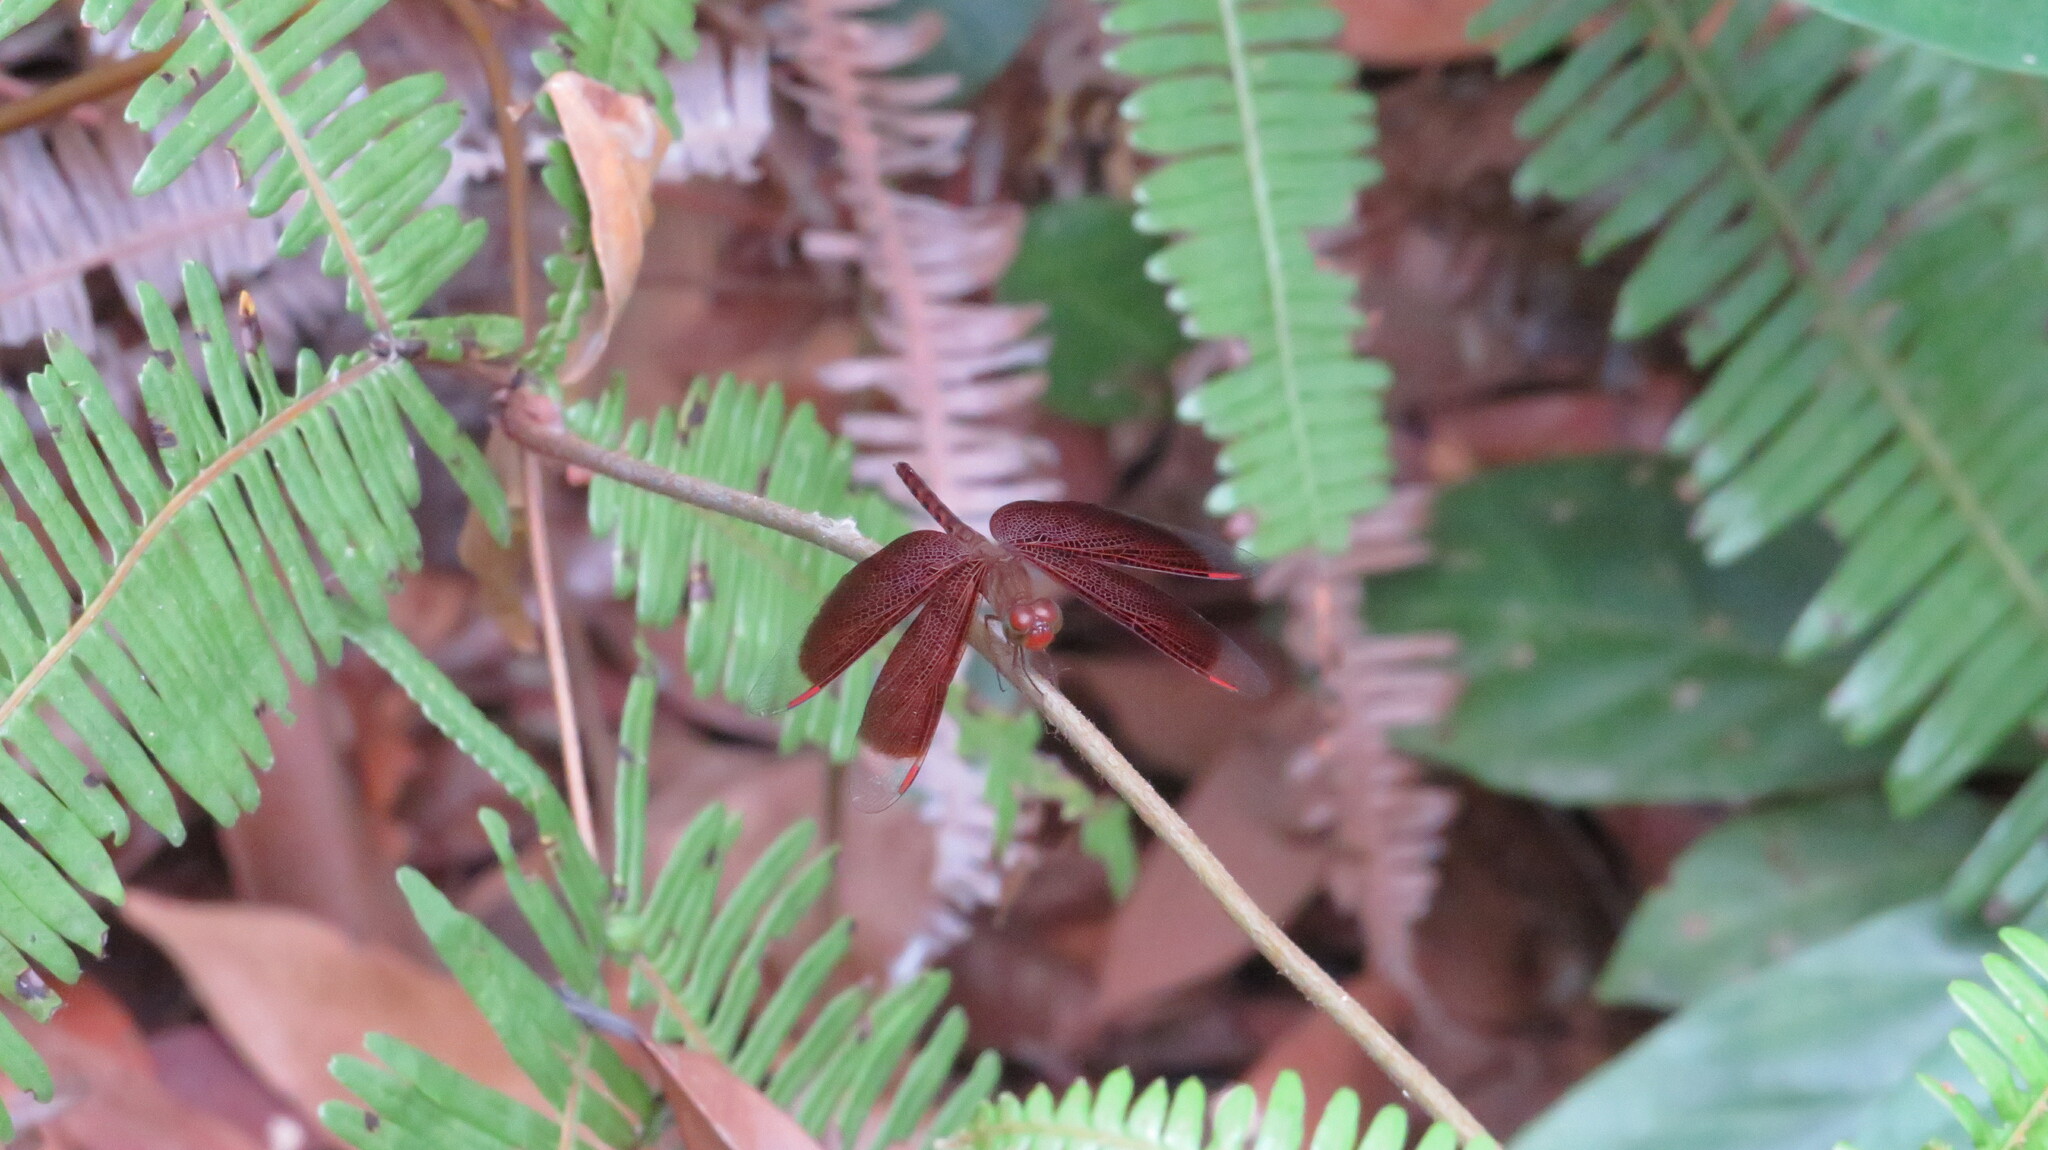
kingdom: Animalia
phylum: Arthropoda
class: Insecta
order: Odonata
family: Libellulidae
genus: Neurothemis
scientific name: Neurothemis fluctuans
